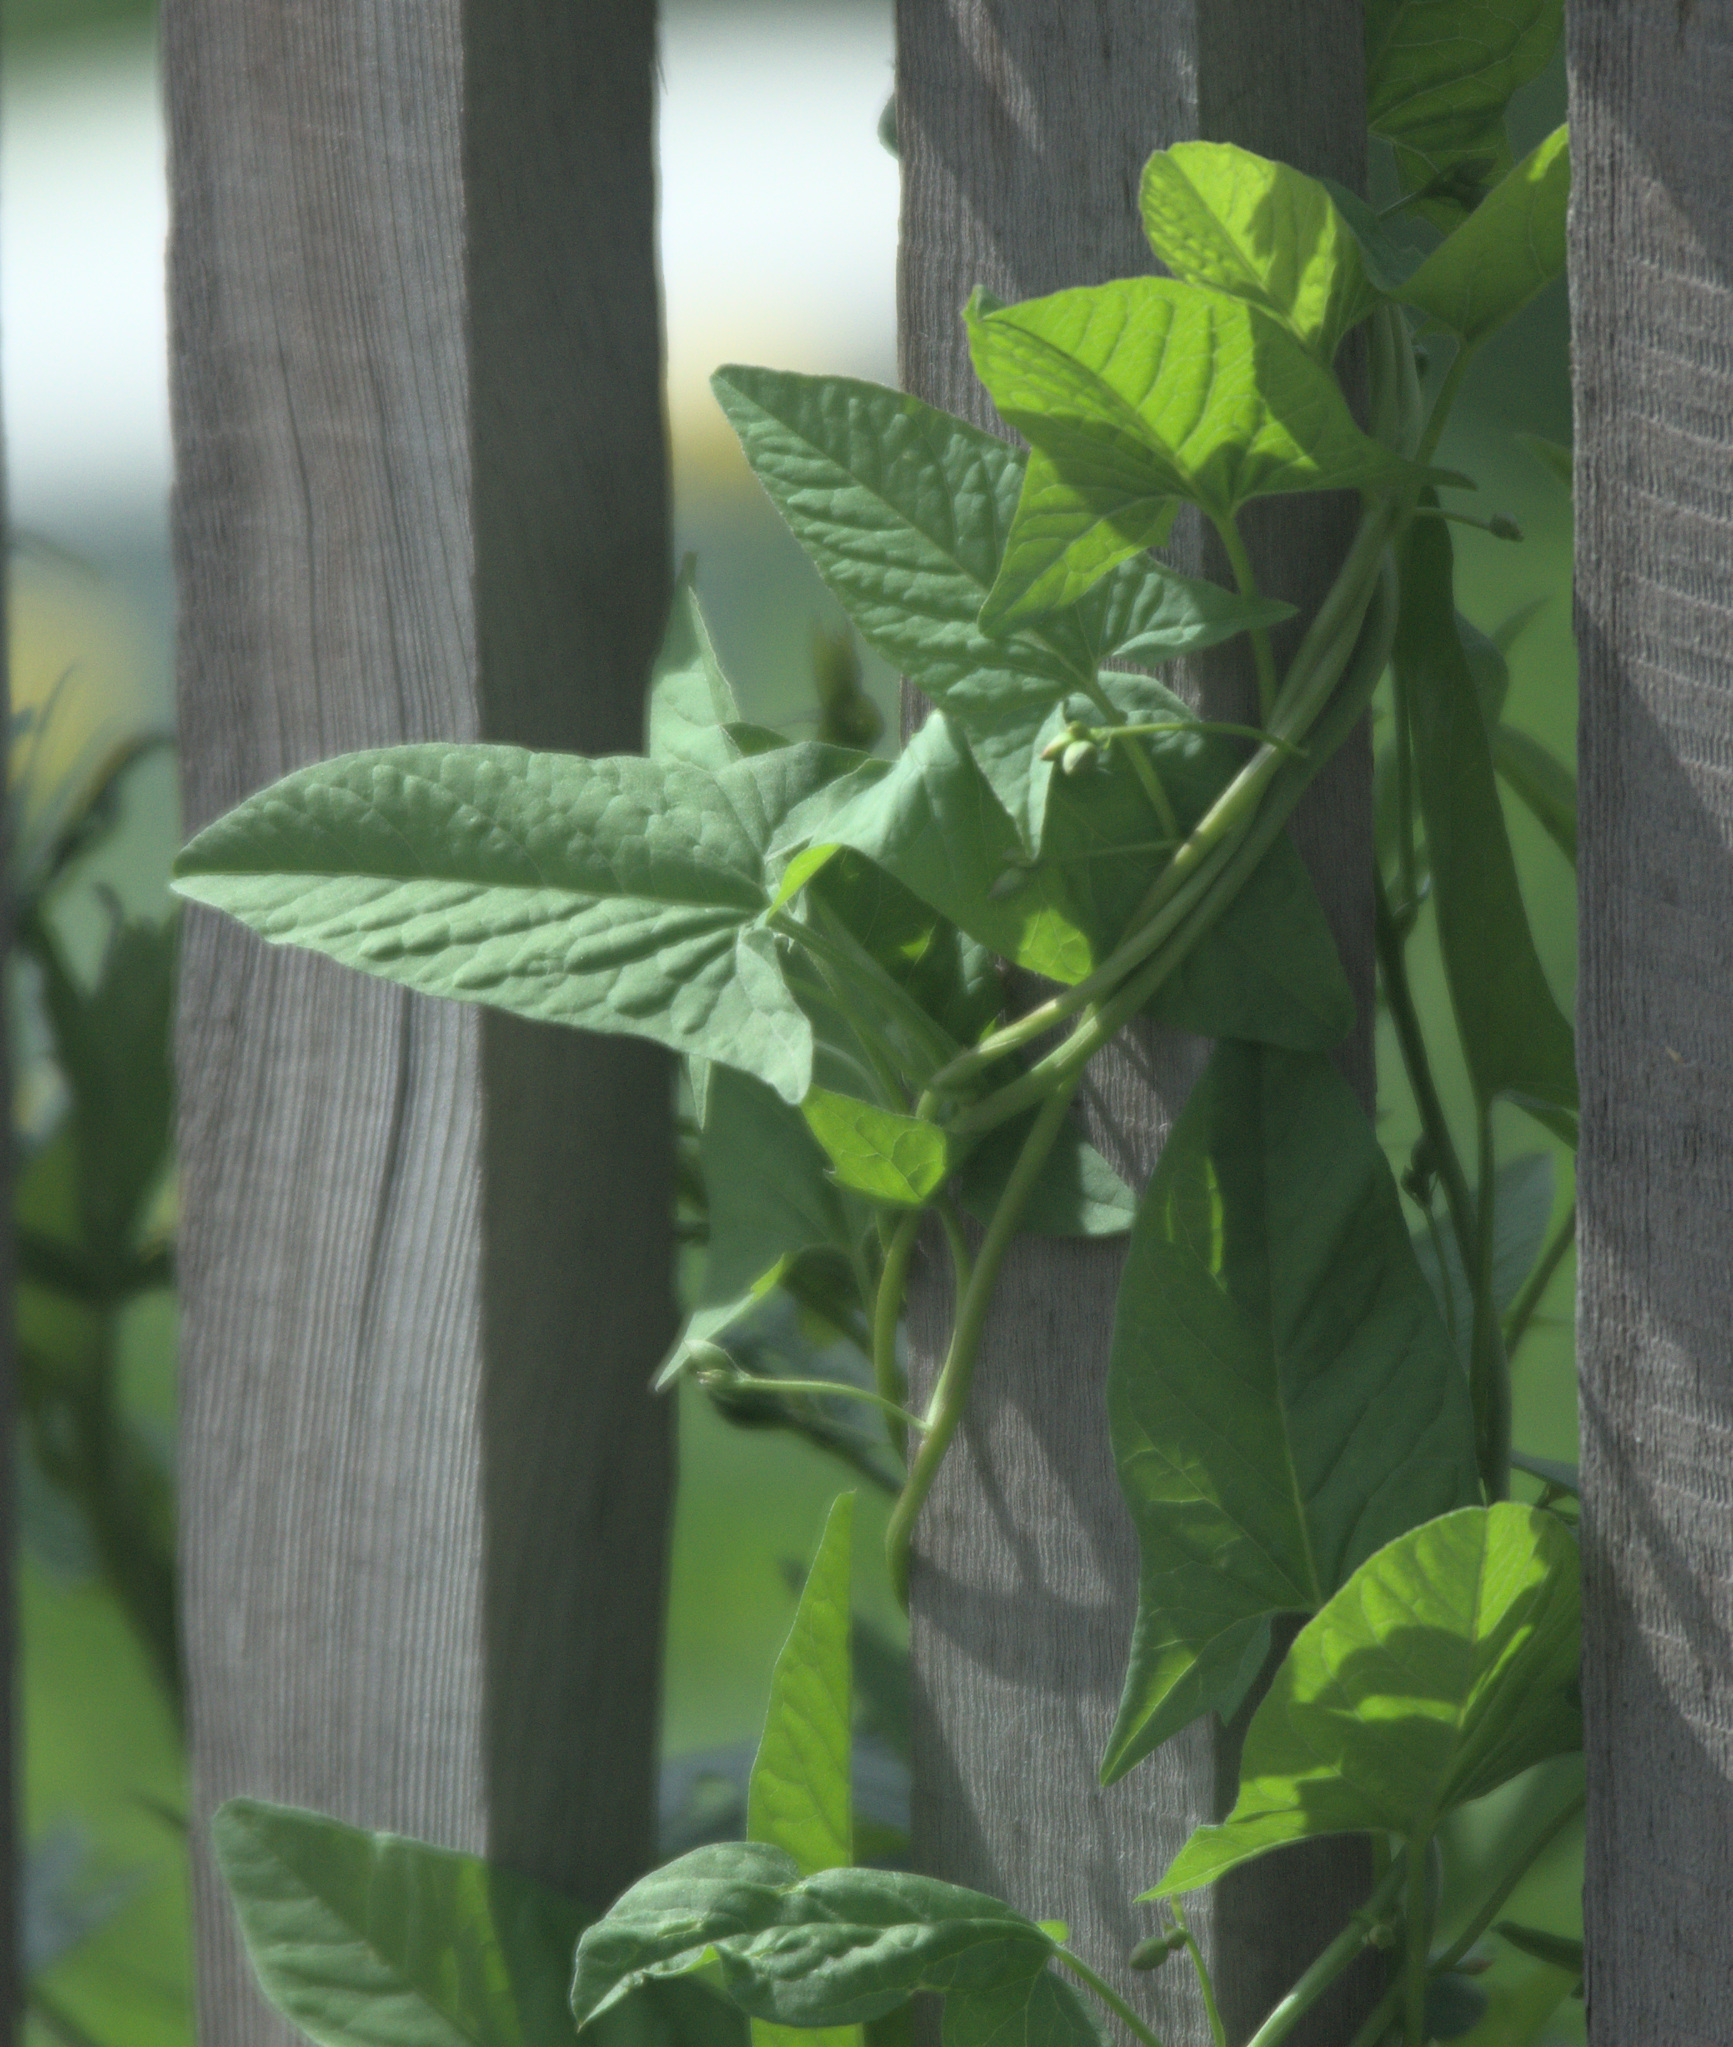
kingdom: Plantae
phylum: Tracheophyta
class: Magnoliopsida
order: Solanales
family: Convolvulaceae
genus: Convolvulus
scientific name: Convolvulus arvensis
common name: Field bindweed
